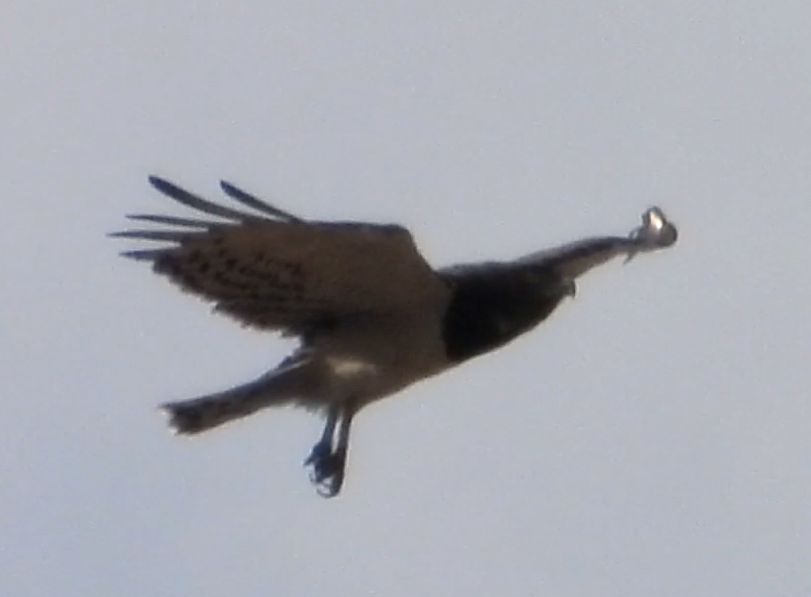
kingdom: Animalia
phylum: Chordata
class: Aves
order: Accipitriformes
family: Accipitridae
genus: Circaetus
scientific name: Circaetus pectoralis
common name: Black-chested snake eagle
